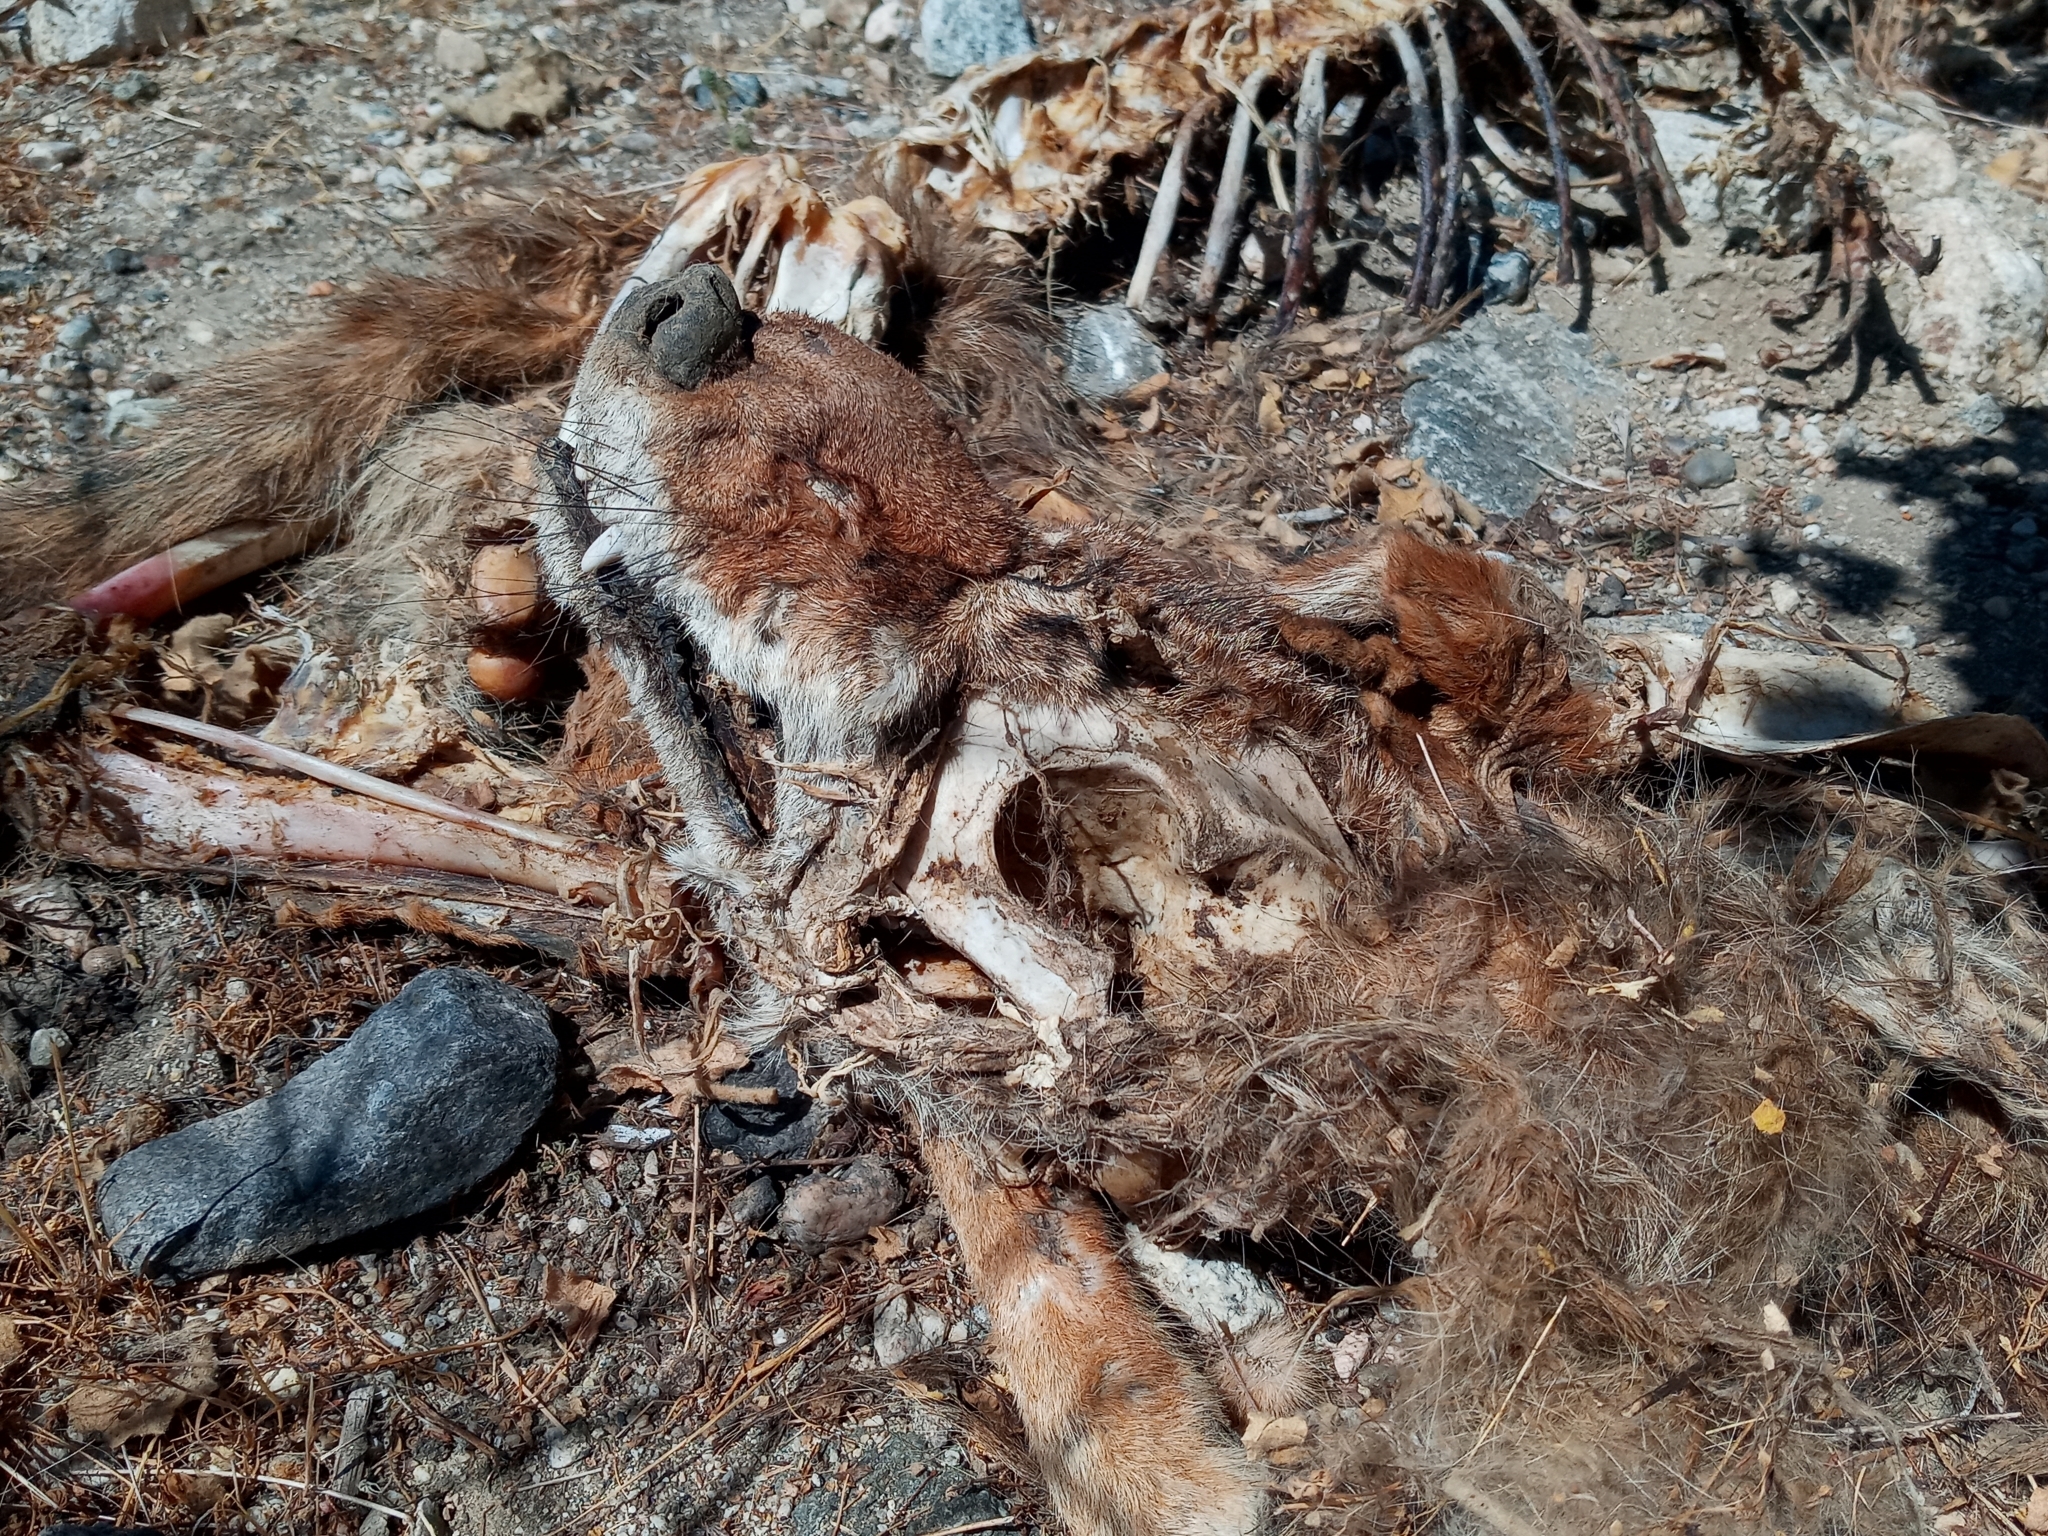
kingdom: Animalia
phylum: Chordata
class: Mammalia
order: Carnivora
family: Canidae
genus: Canis
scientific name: Canis latrans
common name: Coyote
